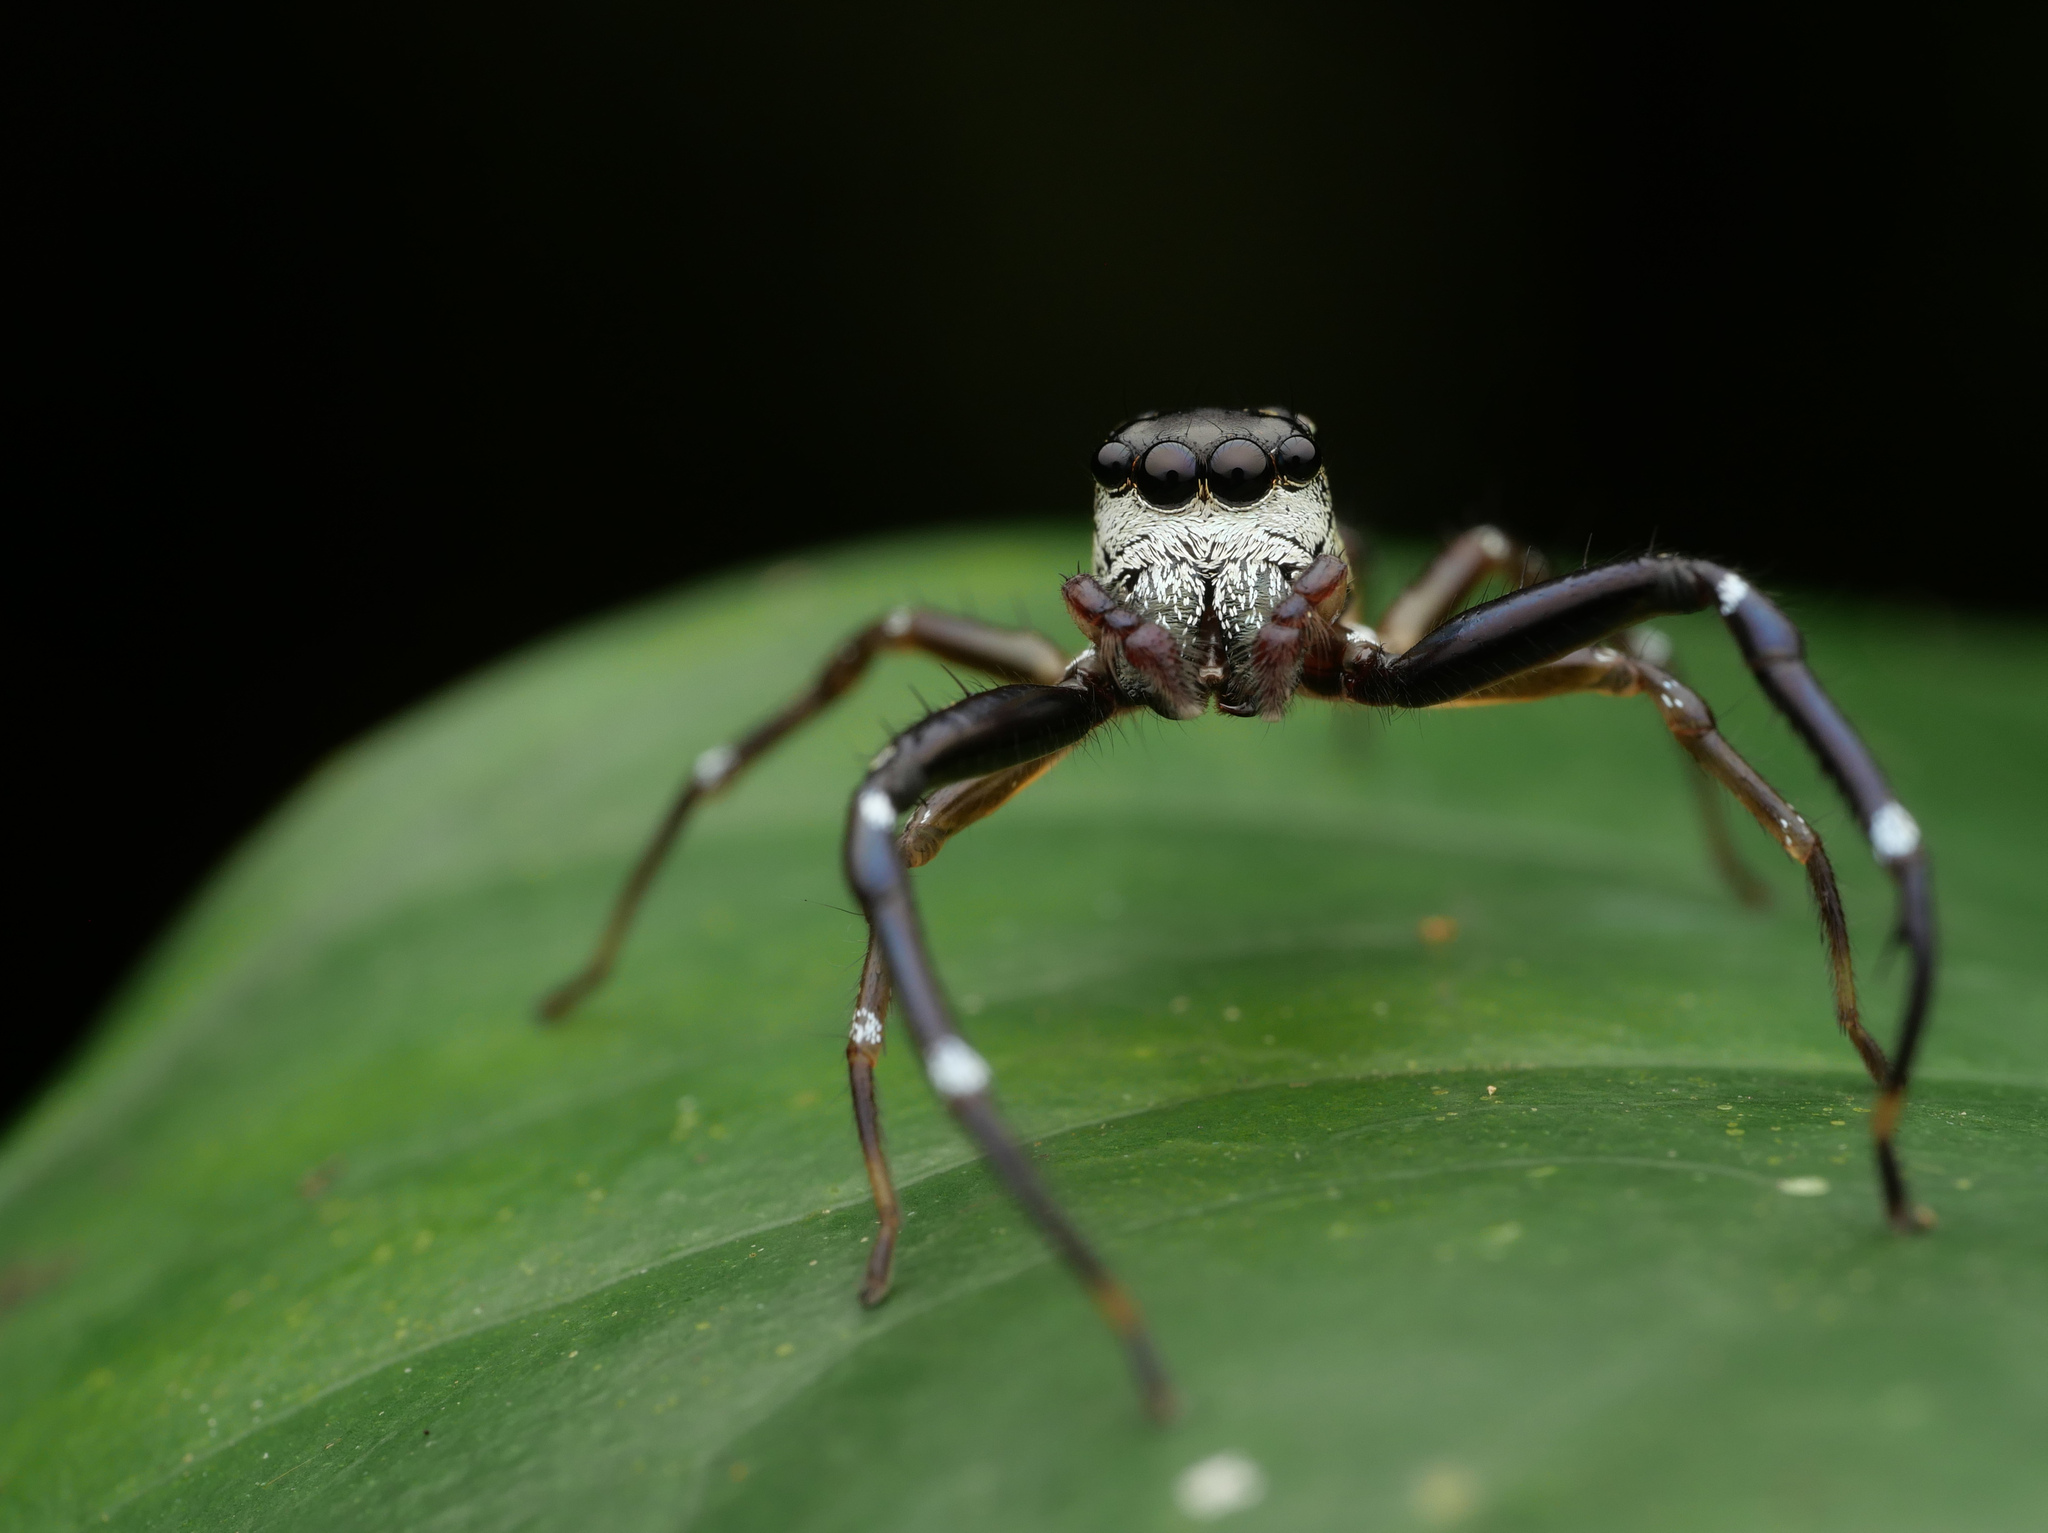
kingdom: Animalia
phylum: Arthropoda
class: Arachnida
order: Araneae
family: Salticidae
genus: Omoedus
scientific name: Omoedus bunbi
